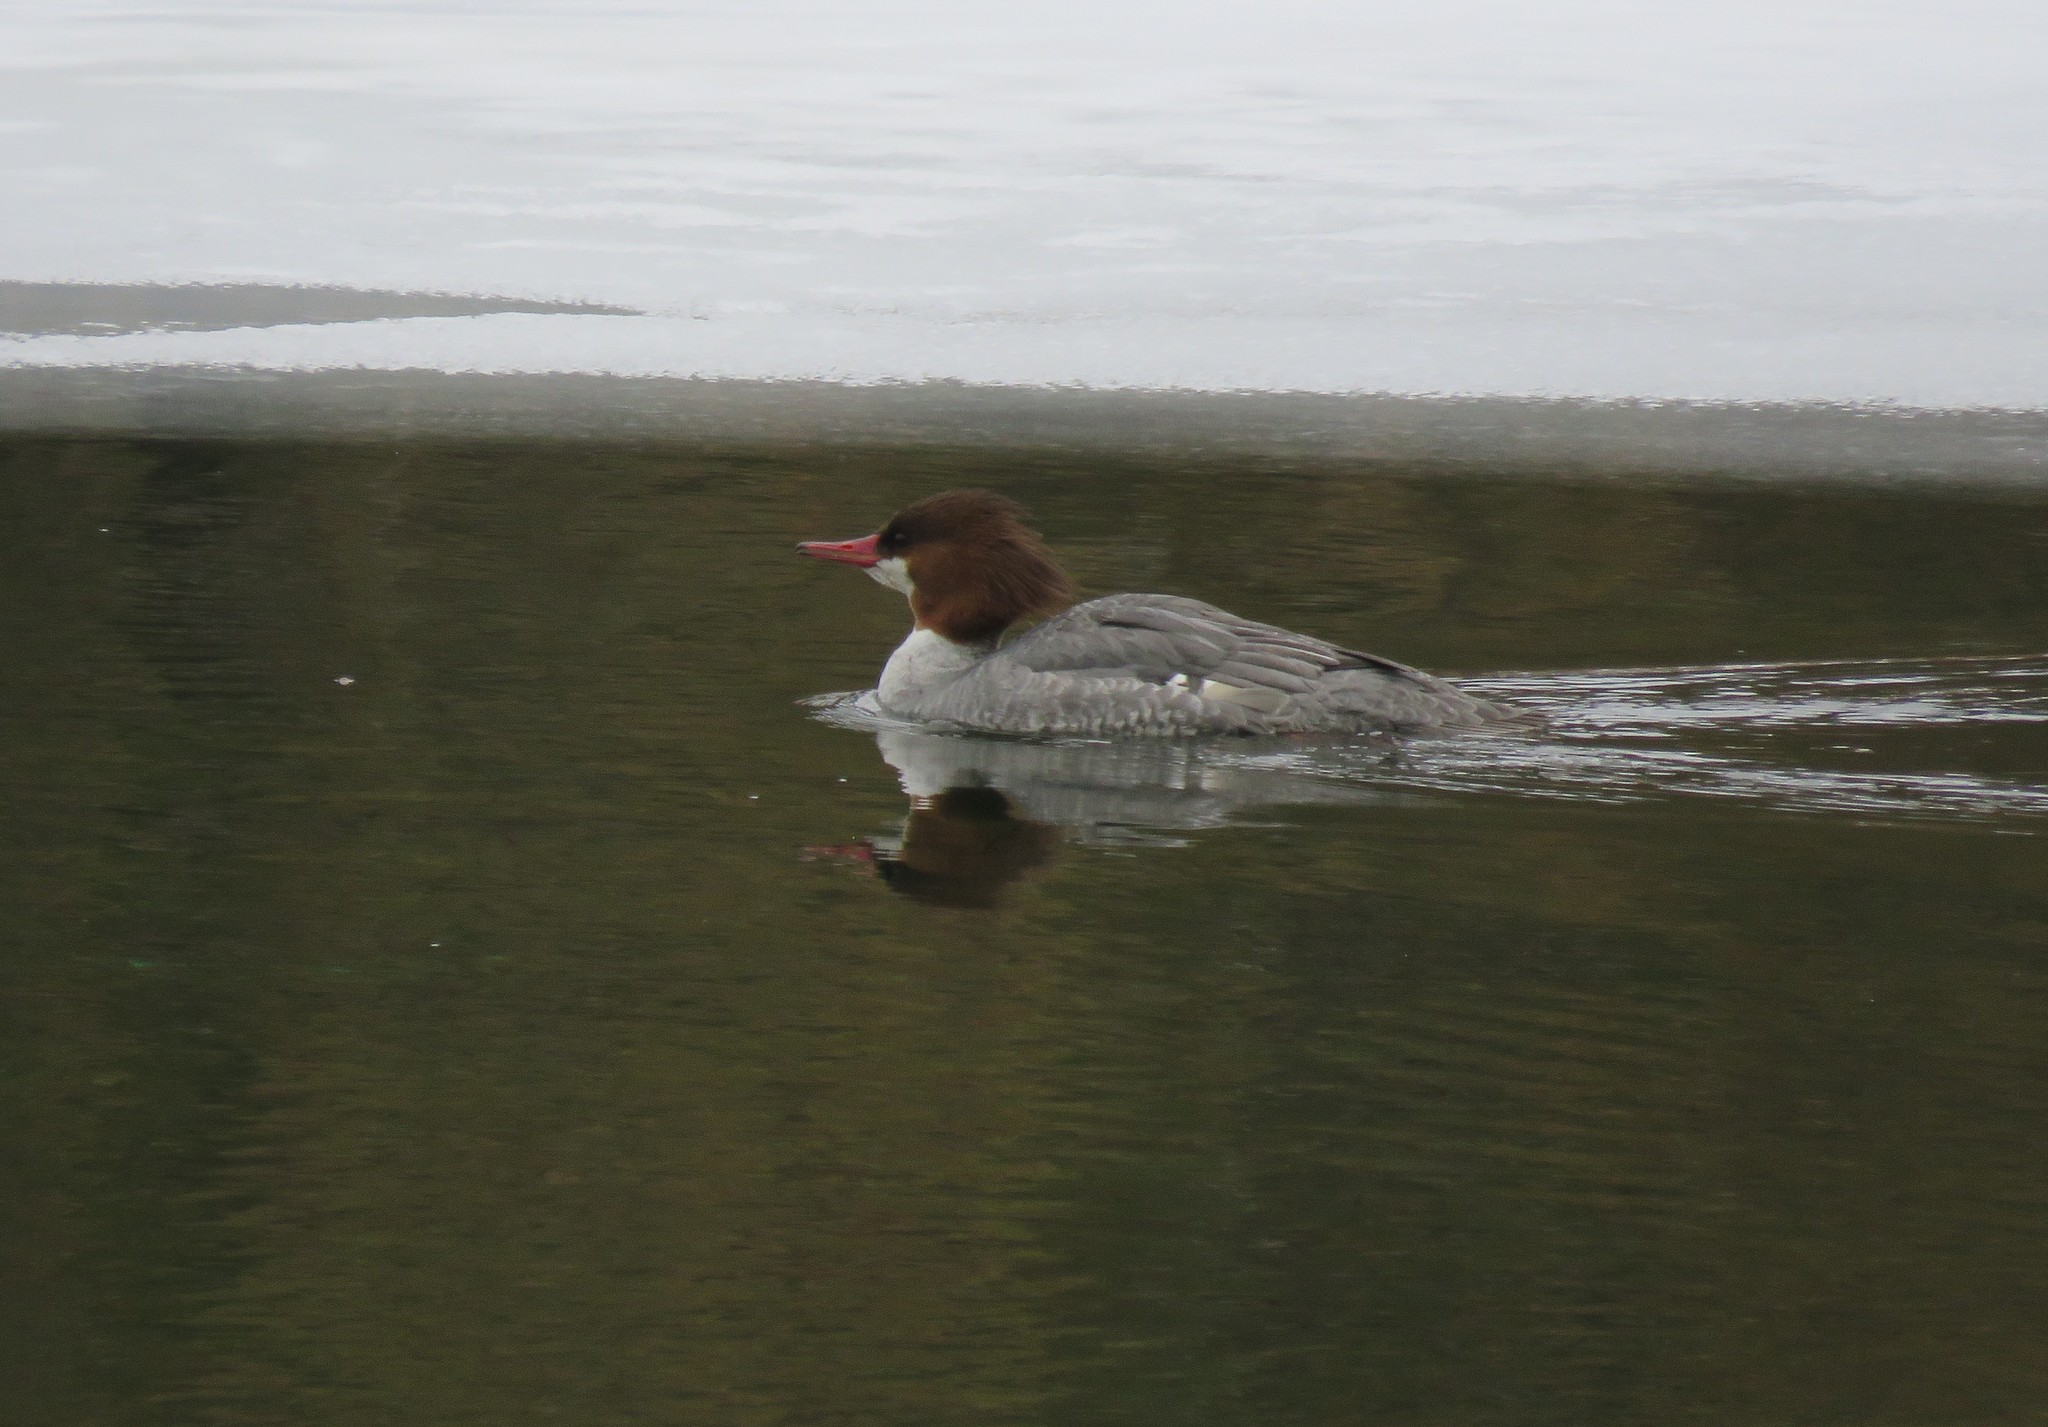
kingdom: Animalia
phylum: Chordata
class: Aves
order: Anseriformes
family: Anatidae
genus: Mergus
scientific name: Mergus merganser
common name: Common merganser
